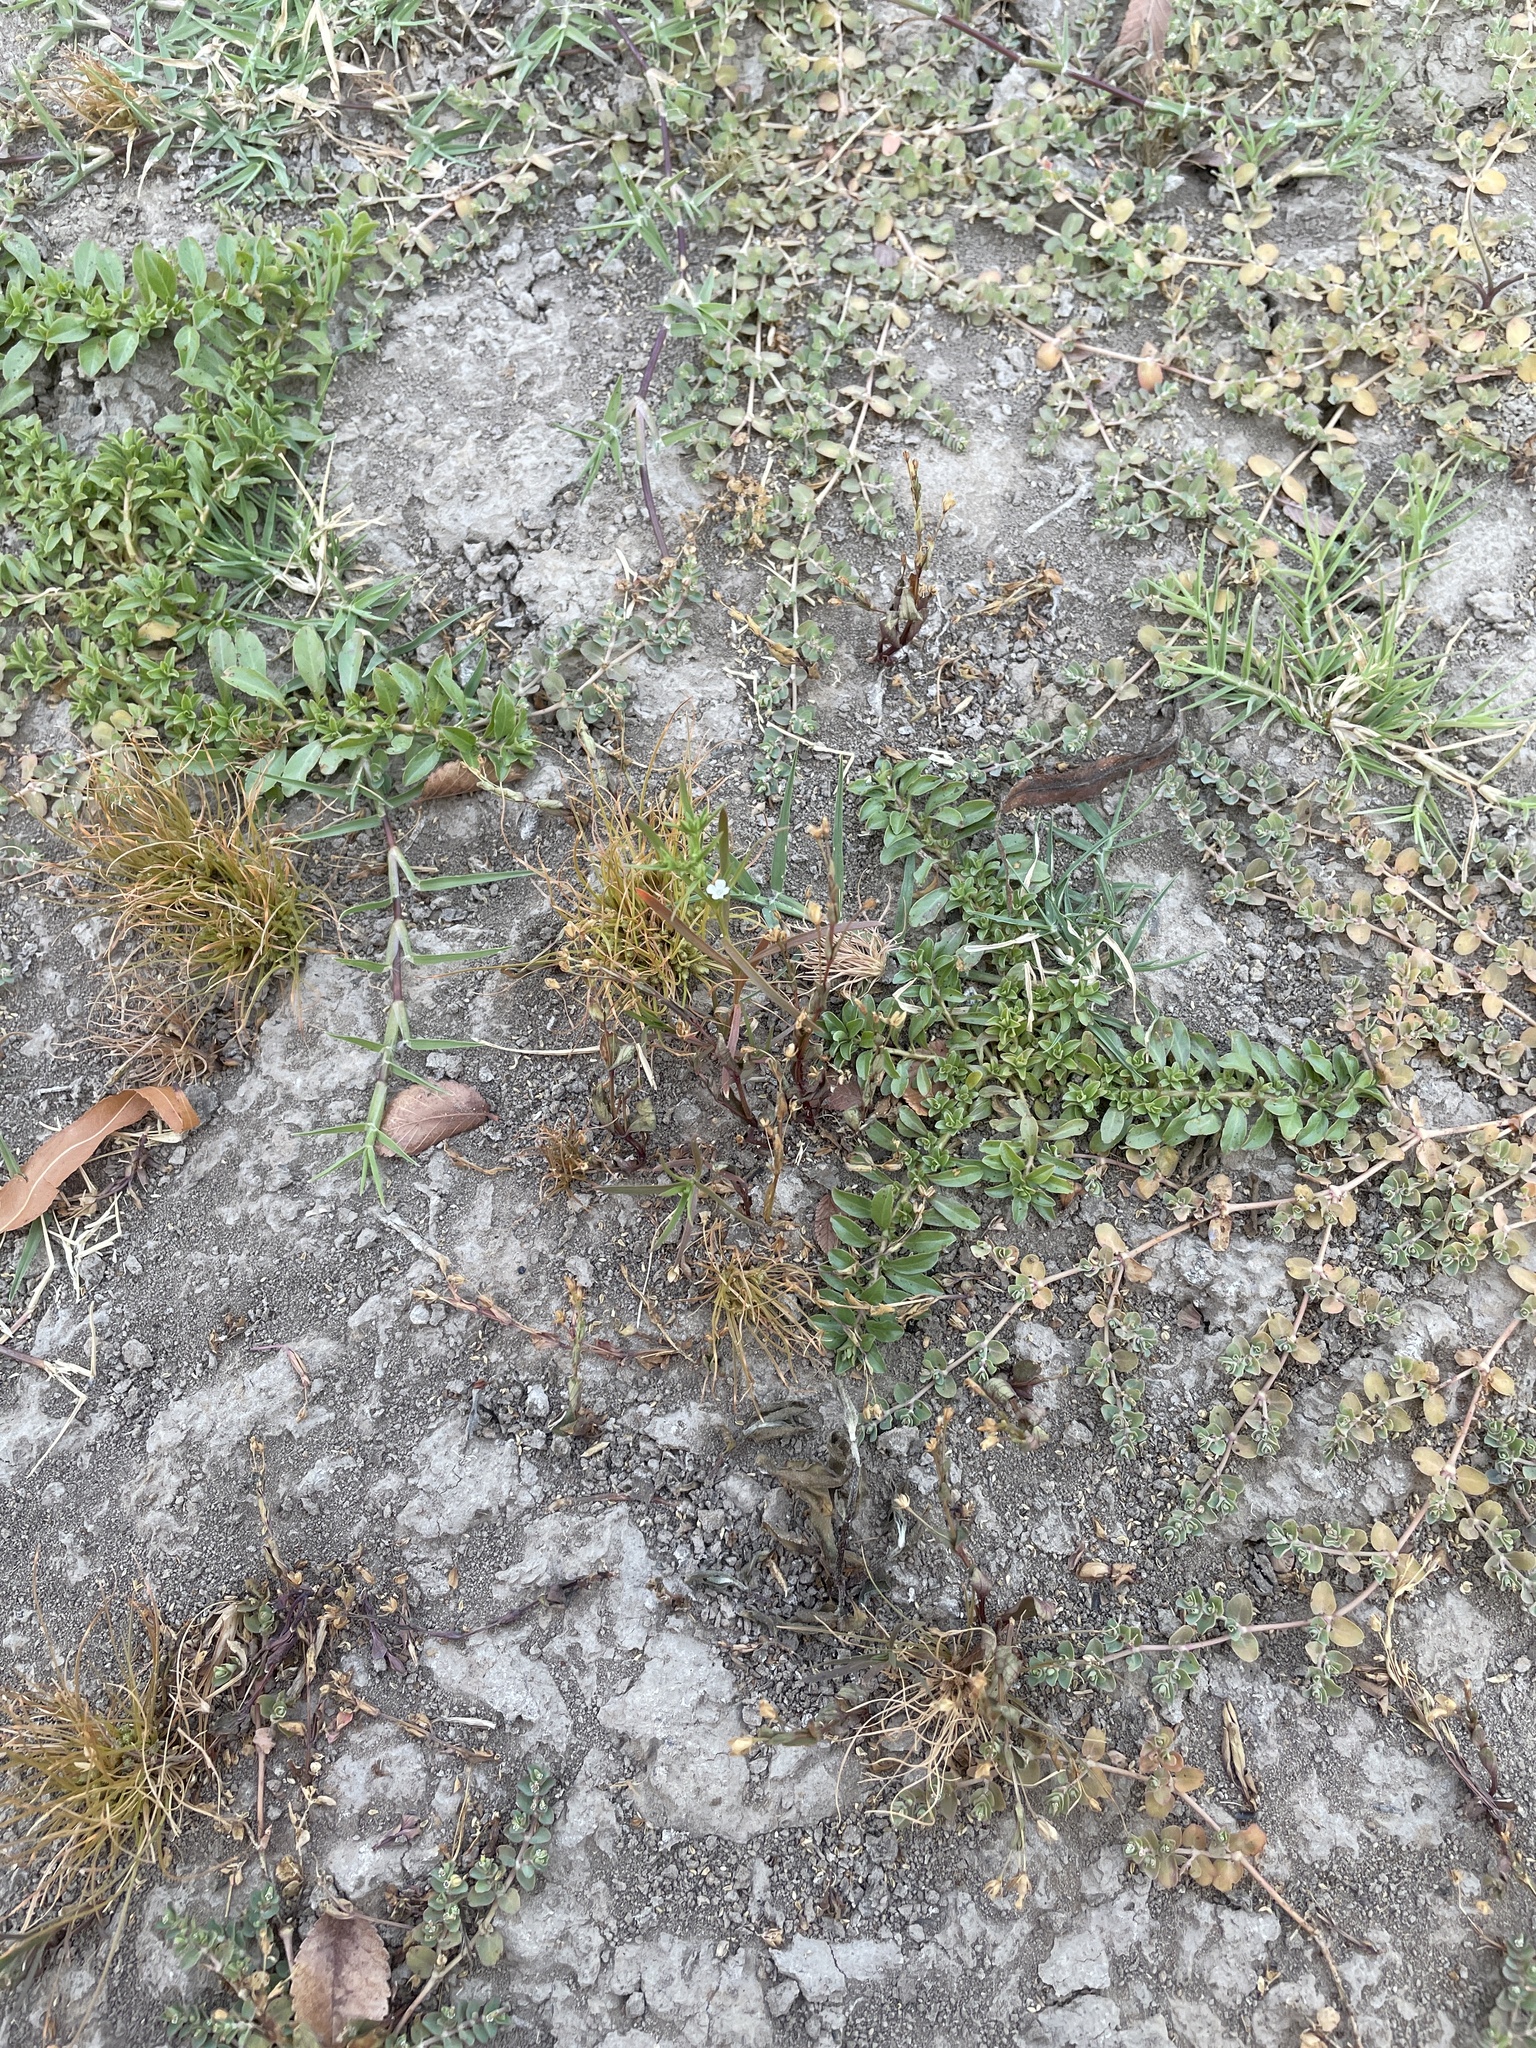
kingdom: Plantae
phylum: Tracheophyta
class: Magnoliopsida
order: Lamiales
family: Tetrachondraceae
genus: Polypremum
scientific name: Polypremum procumbens
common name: Juniper-leaf
